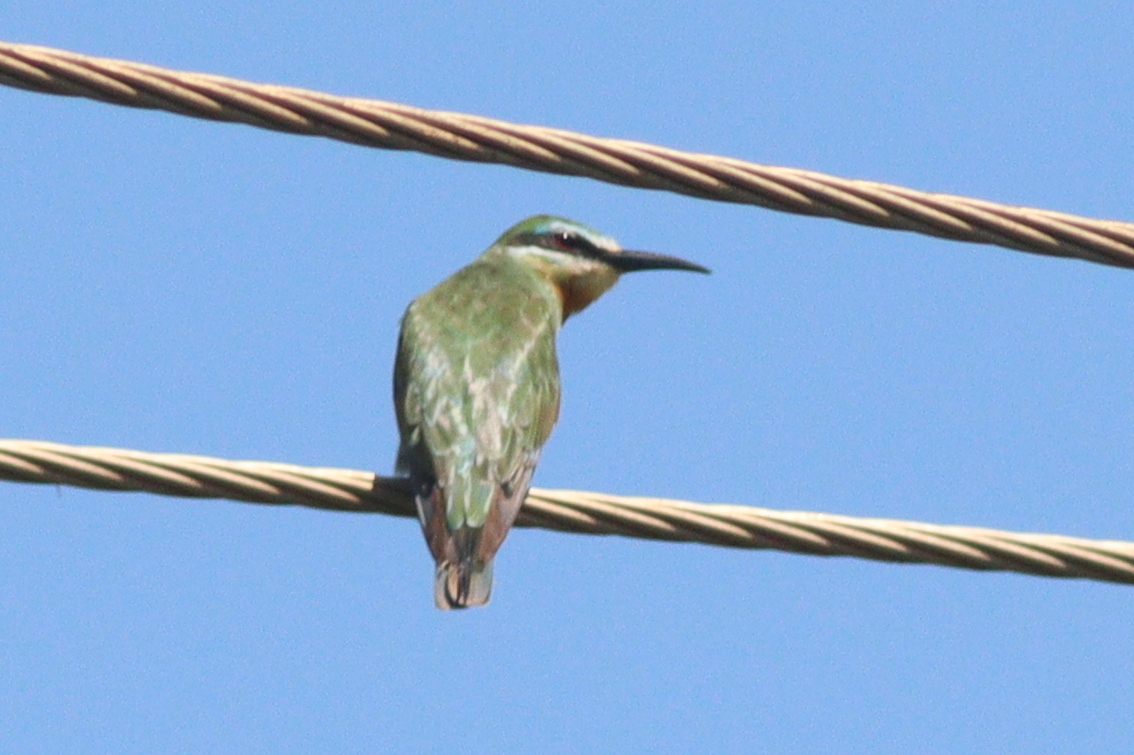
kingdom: Animalia
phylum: Chordata
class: Aves
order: Coraciiformes
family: Meropidae
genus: Merops
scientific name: Merops persicus
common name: Blue-cheeked bee-eater
